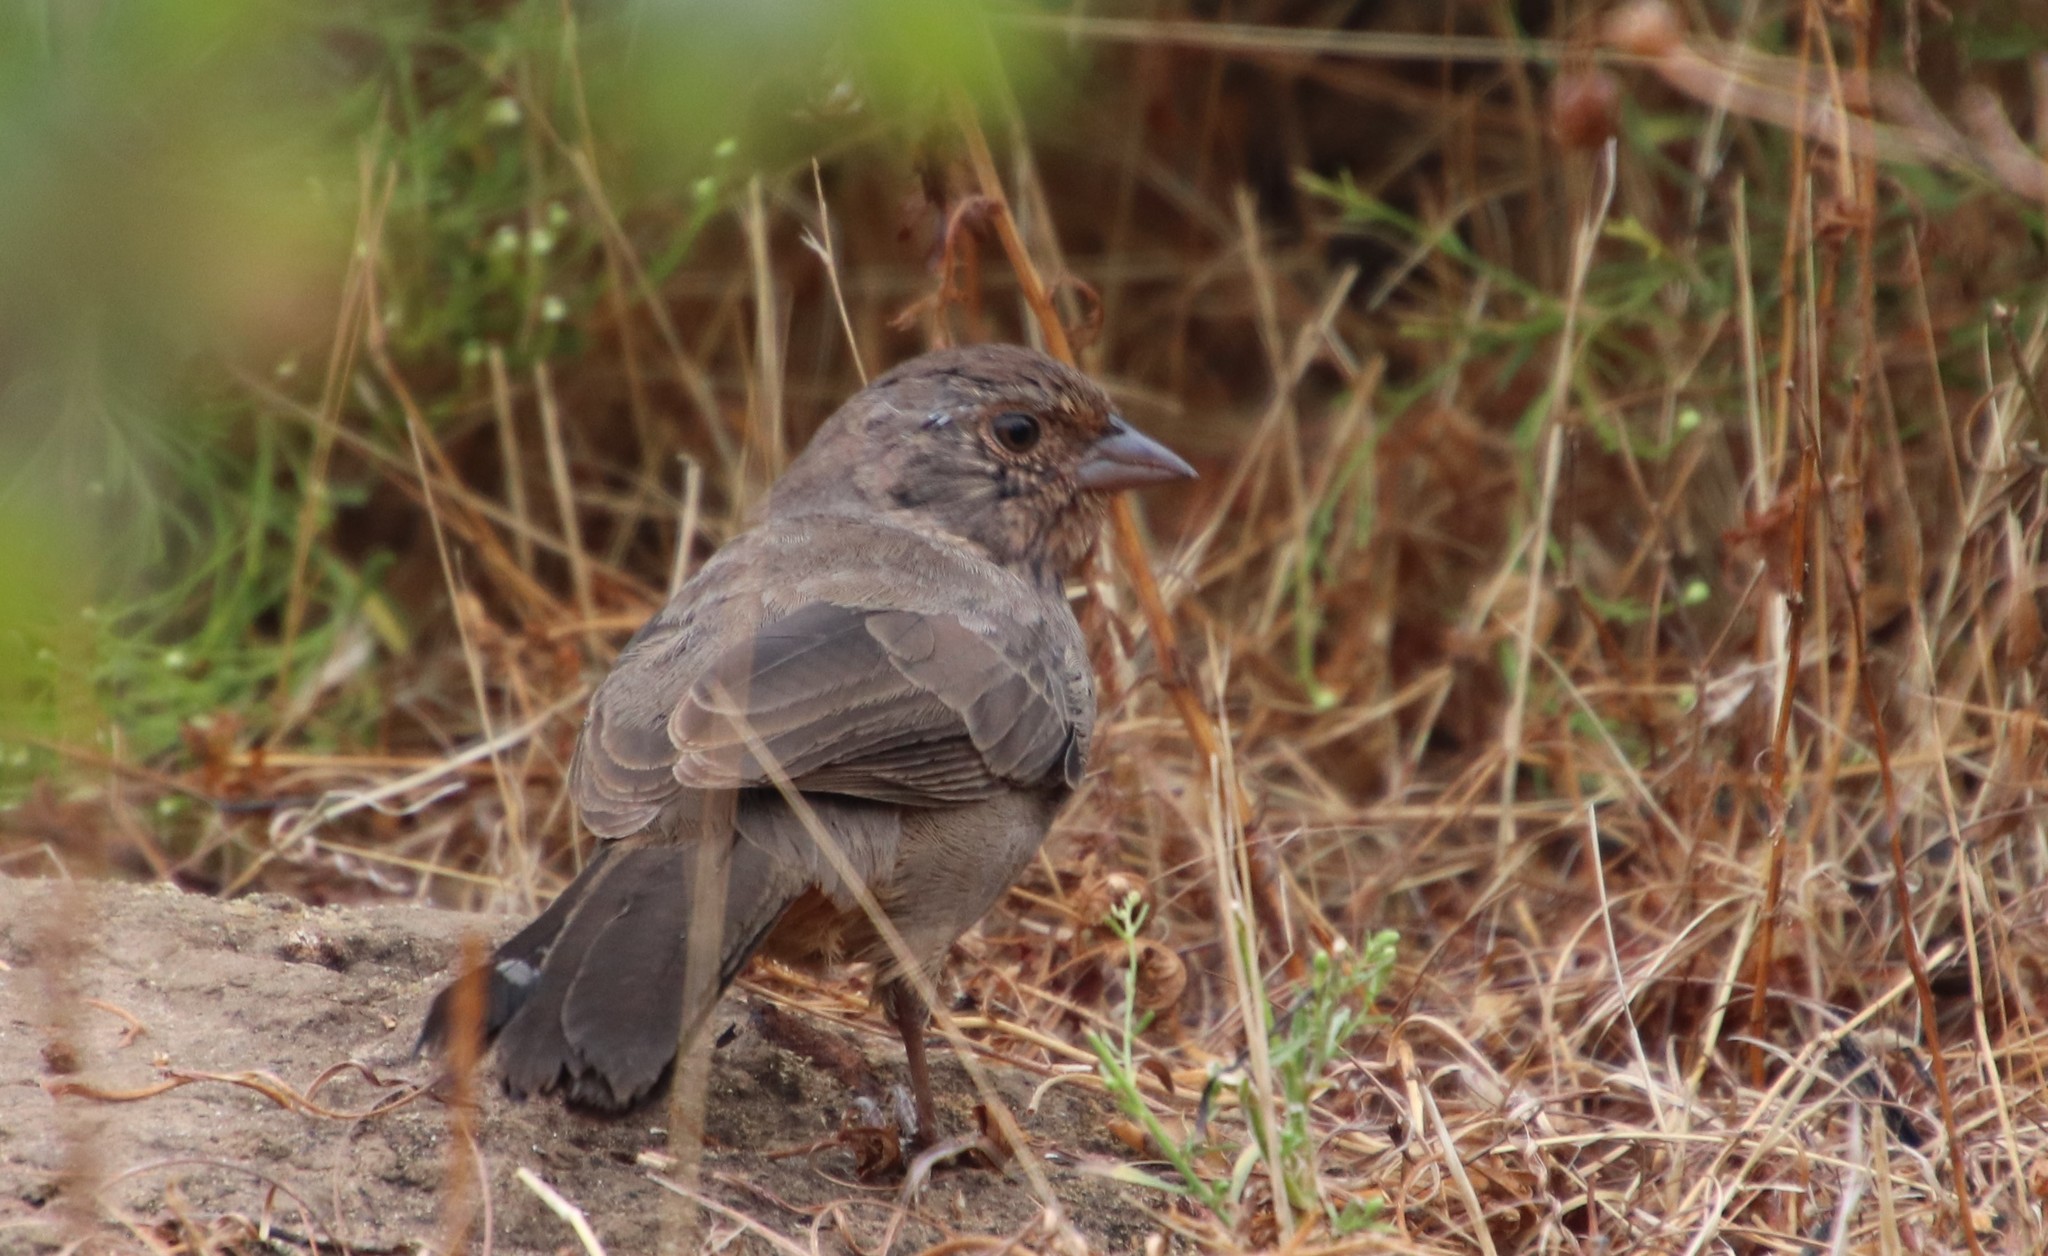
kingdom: Animalia
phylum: Chordata
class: Aves
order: Passeriformes
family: Passerellidae
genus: Melozone
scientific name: Melozone crissalis
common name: California towhee
